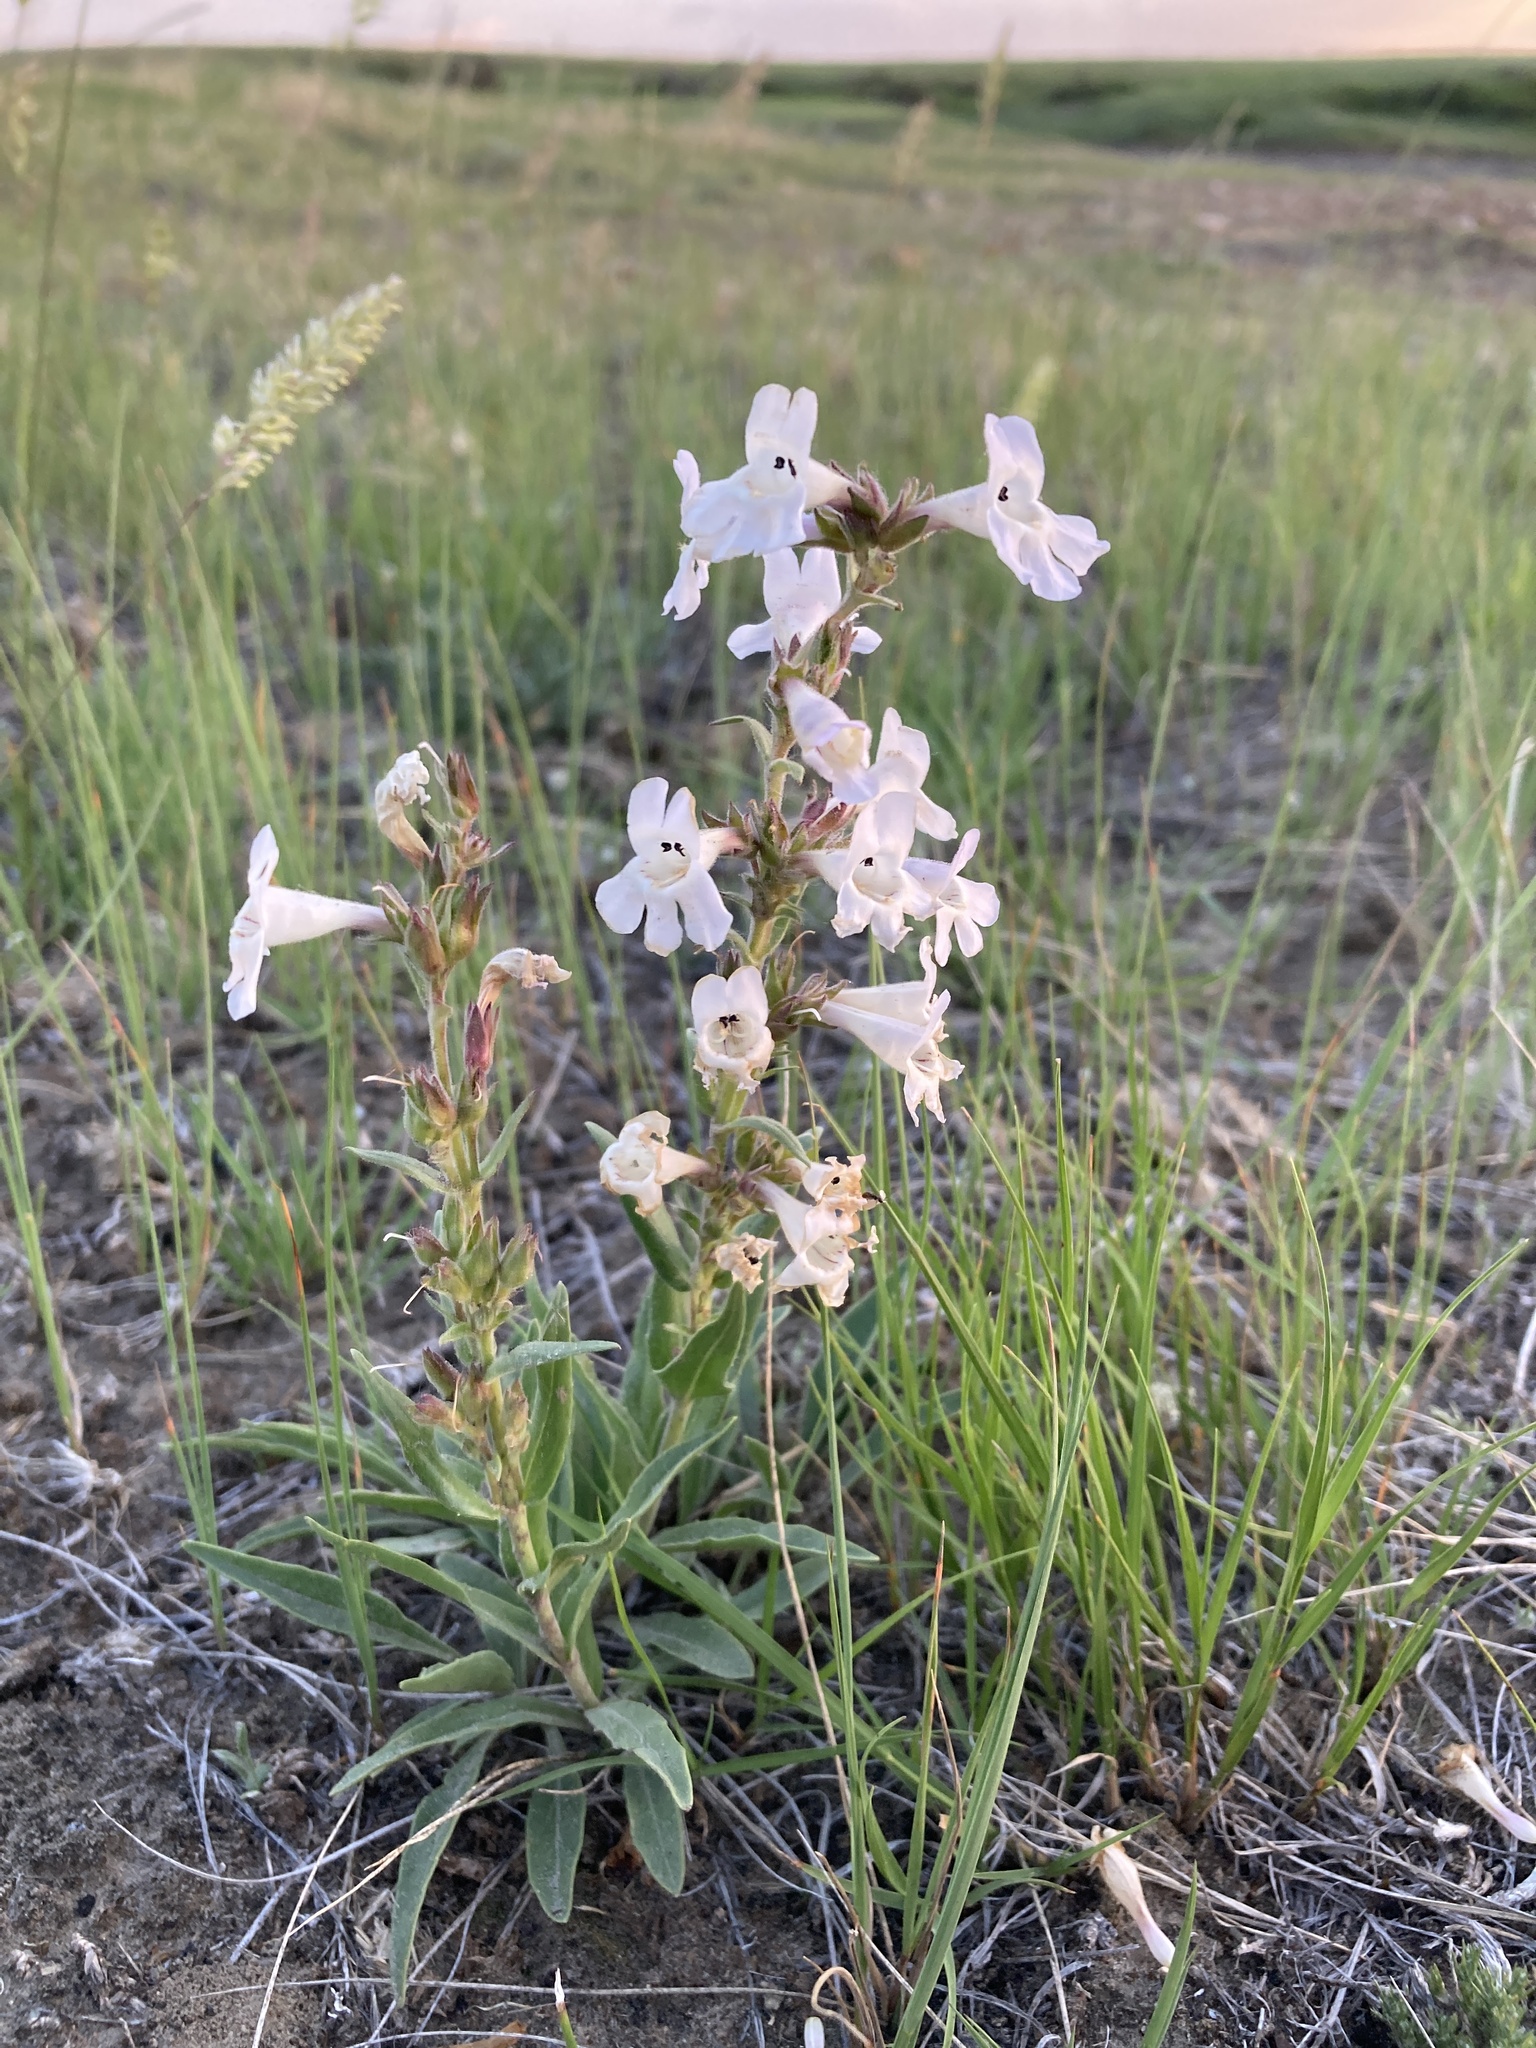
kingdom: Plantae
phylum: Tracheophyta
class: Magnoliopsida
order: Lamiales
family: Plantaginaceae
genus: Penstemon
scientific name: Penstemon albidus
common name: White beardtongue
